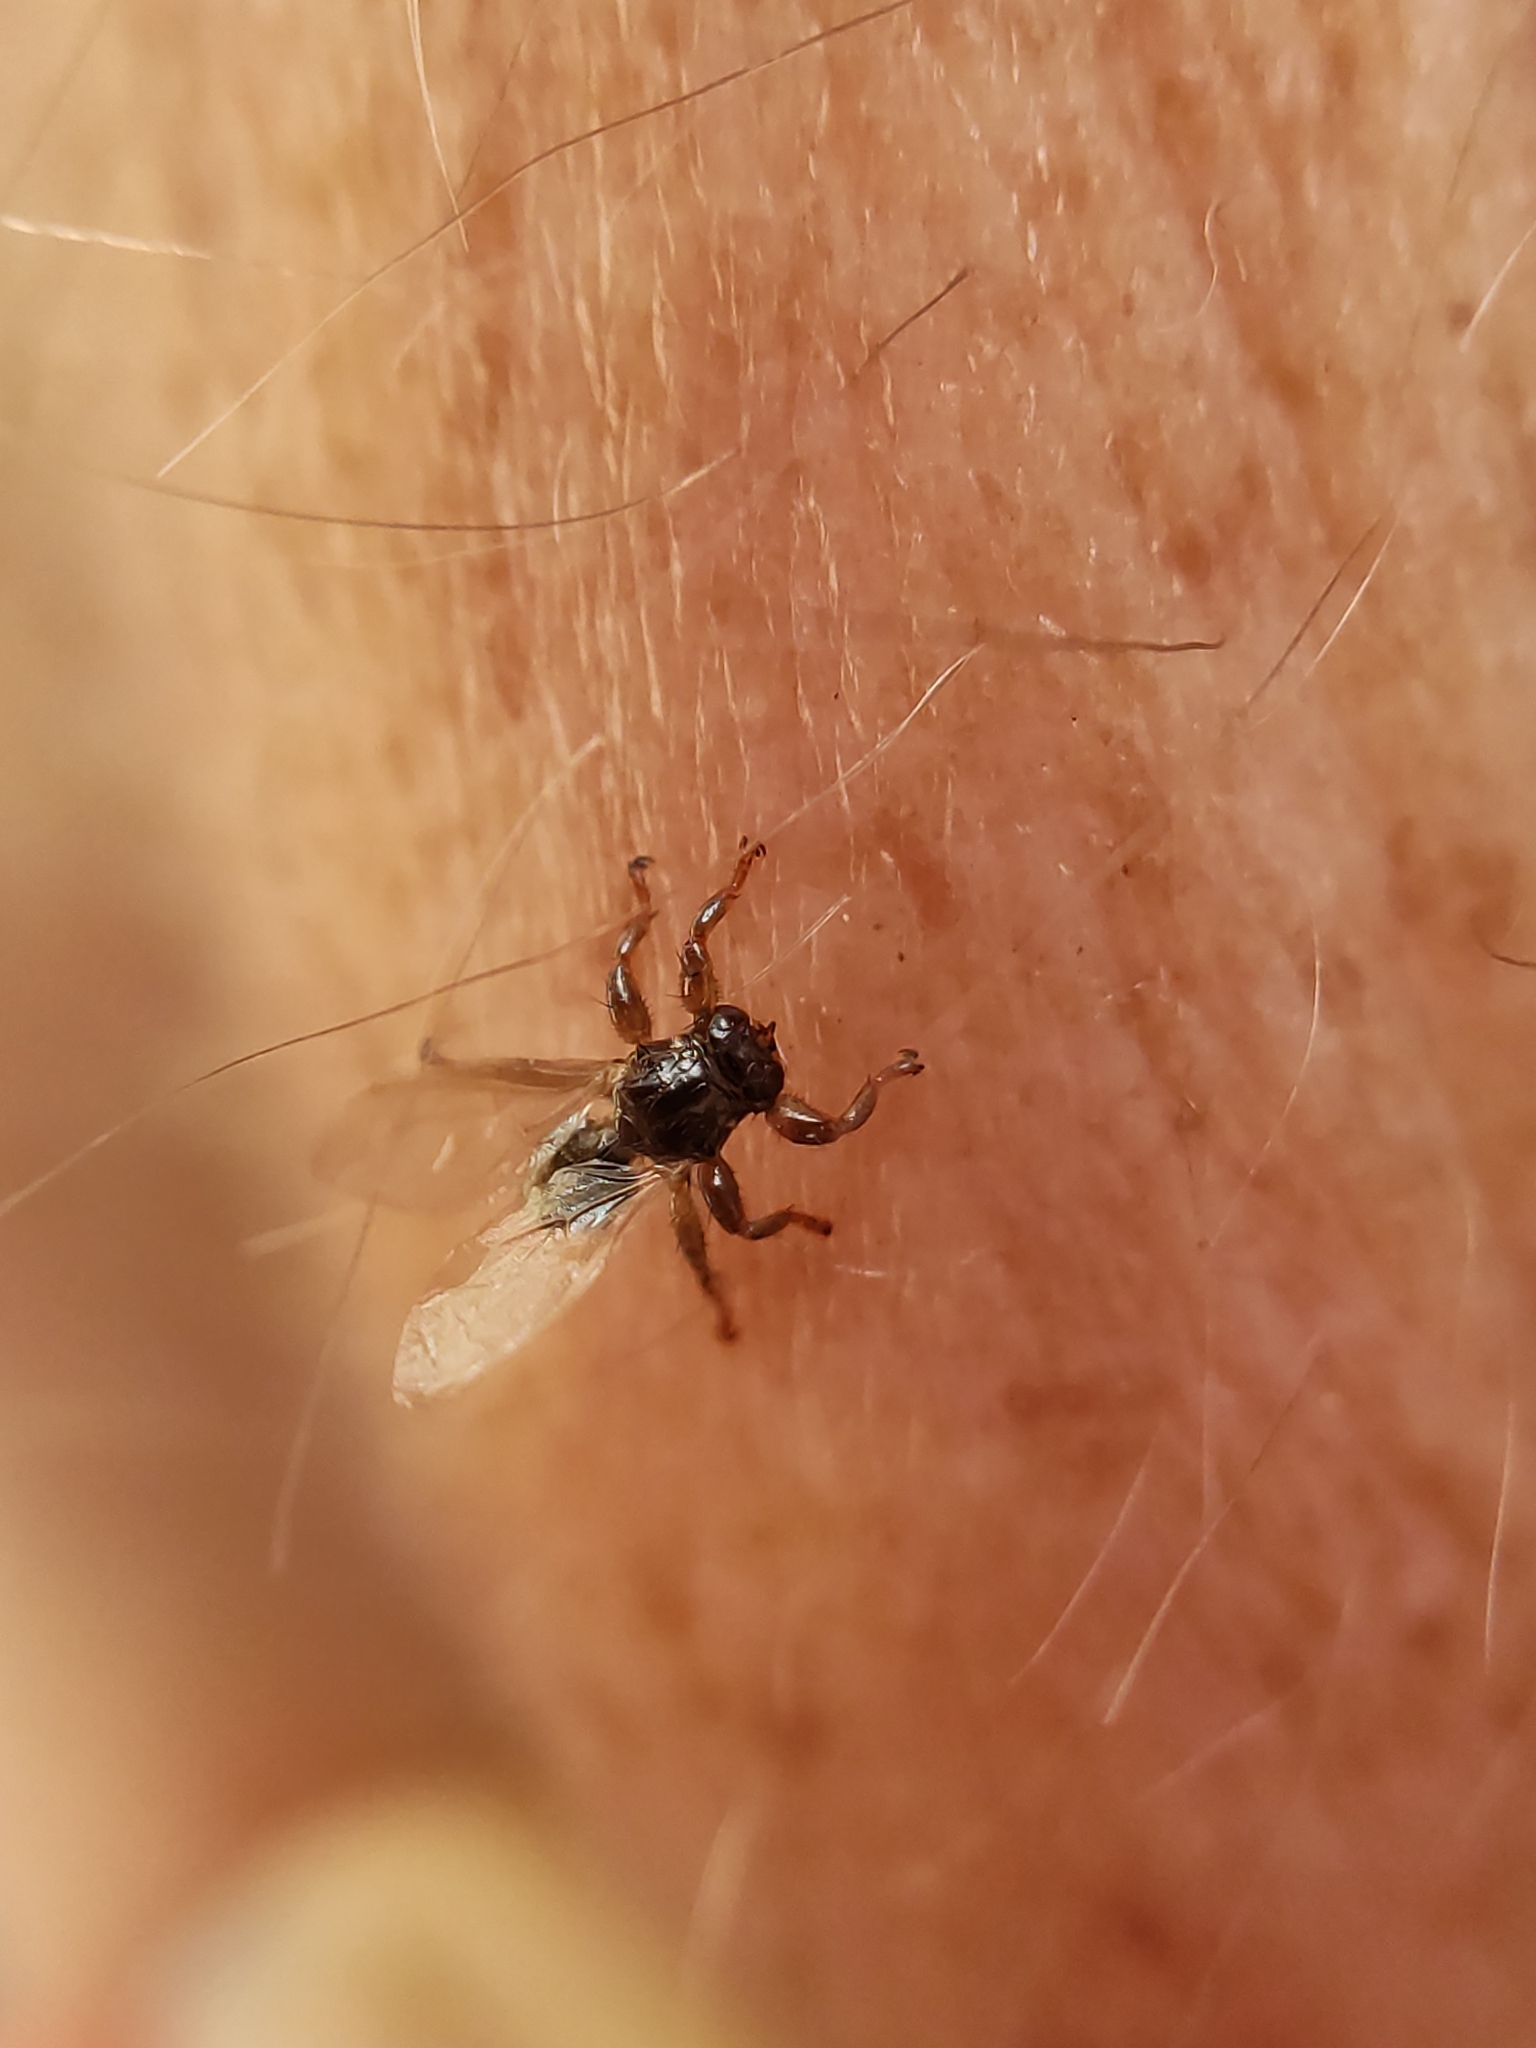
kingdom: Animalia
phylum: Arthropoda
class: Insecta
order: Diptera
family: Hippoboscidae
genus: Lipoptena
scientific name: Lipoptena cervi
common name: Deer ked
